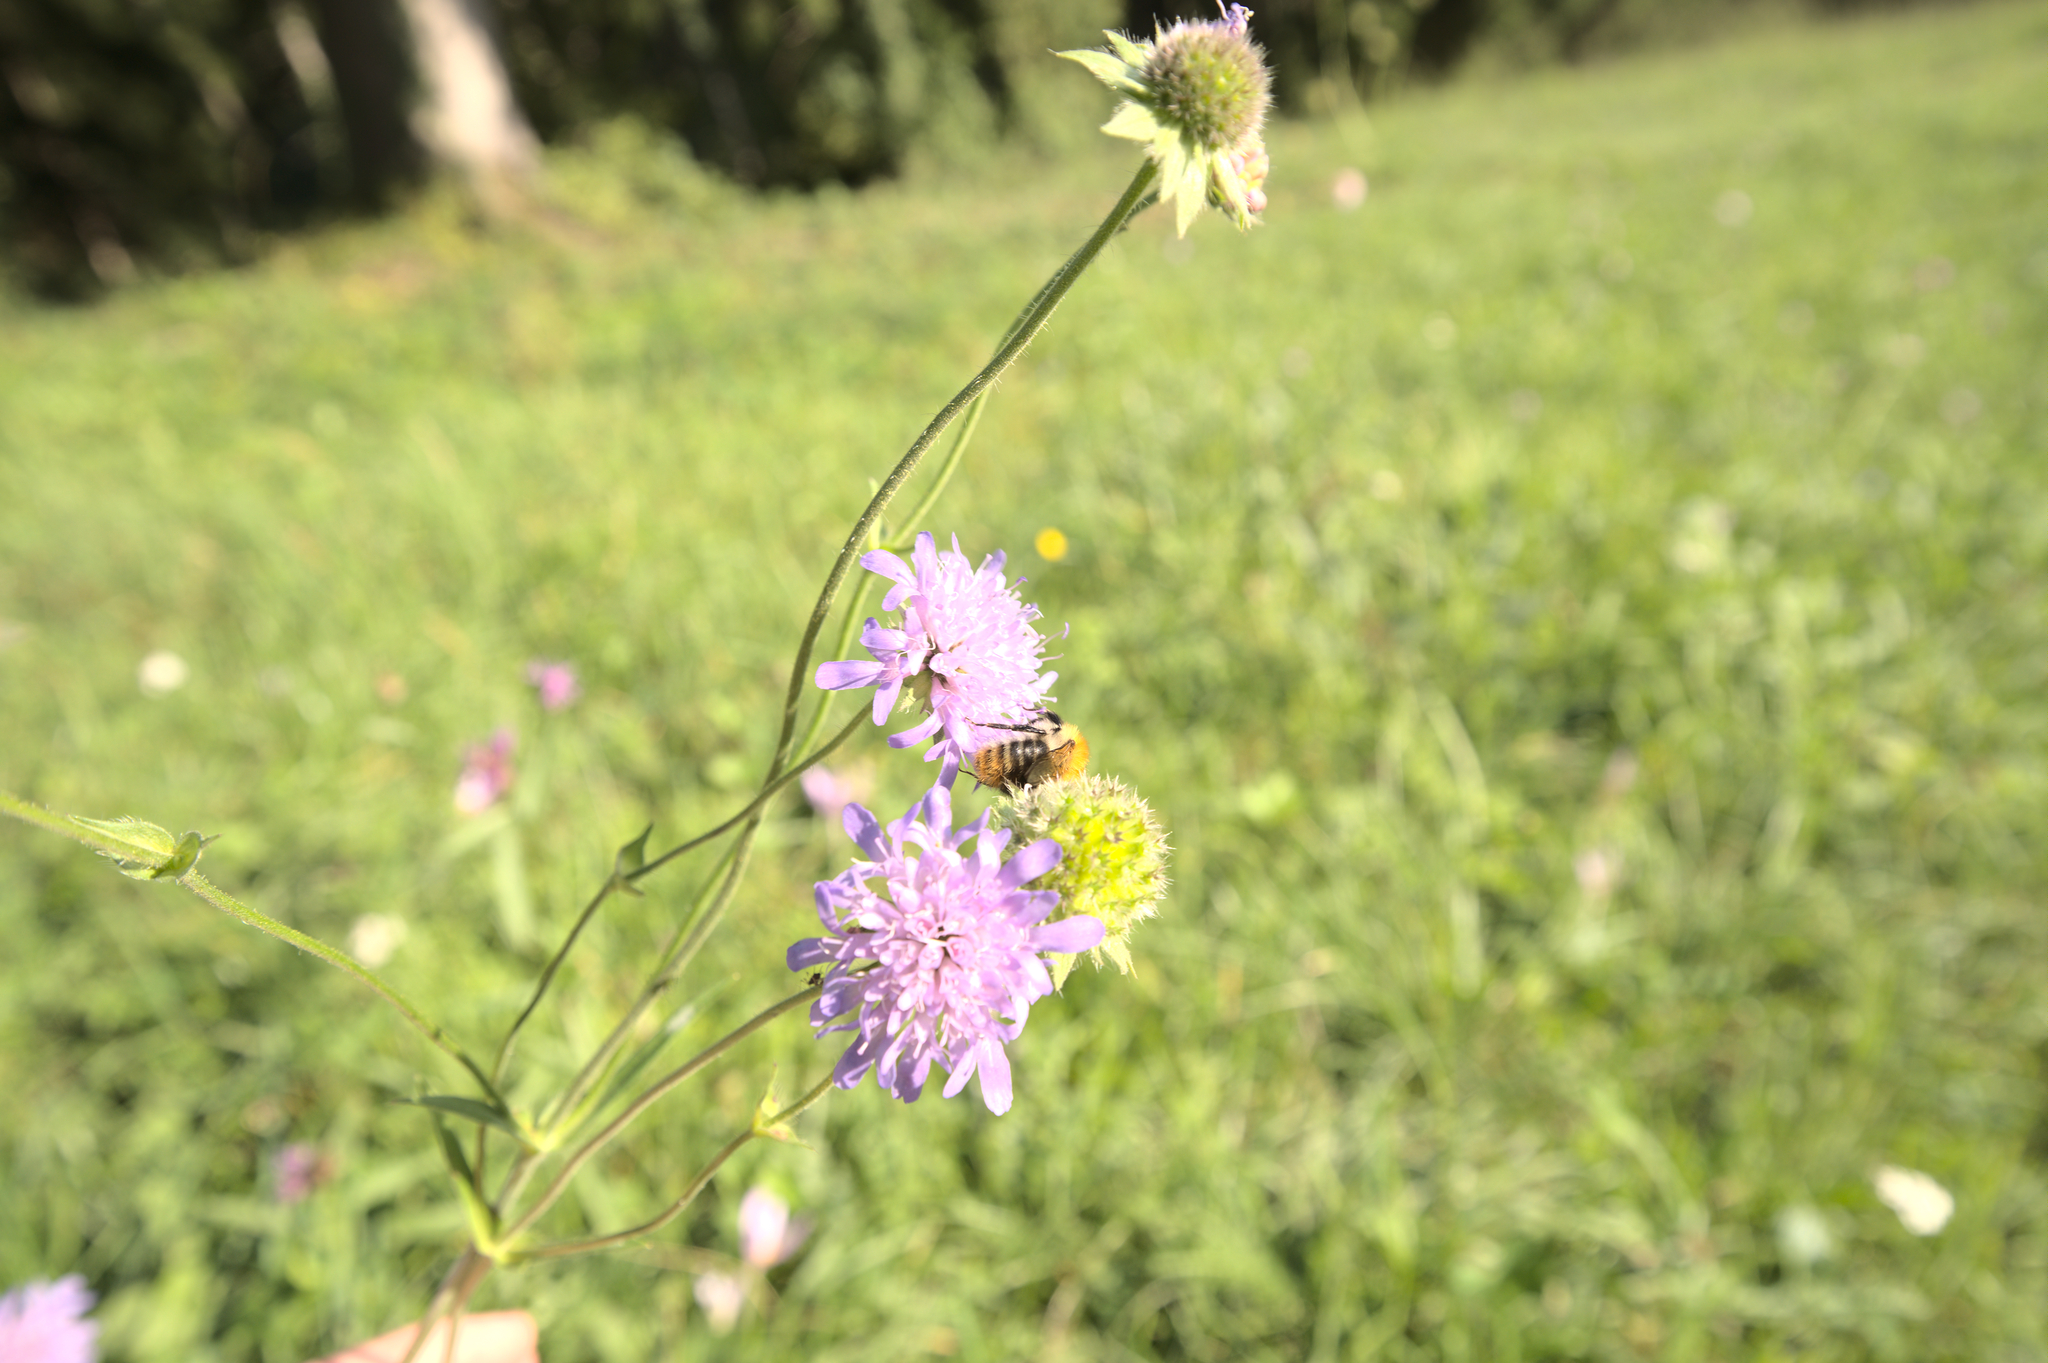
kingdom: Animalia
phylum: Arthropoda
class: Insecta
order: Hymenoptera
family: Apidae
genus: Bombus
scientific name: Bombus pascuorum
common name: Common carder bee
